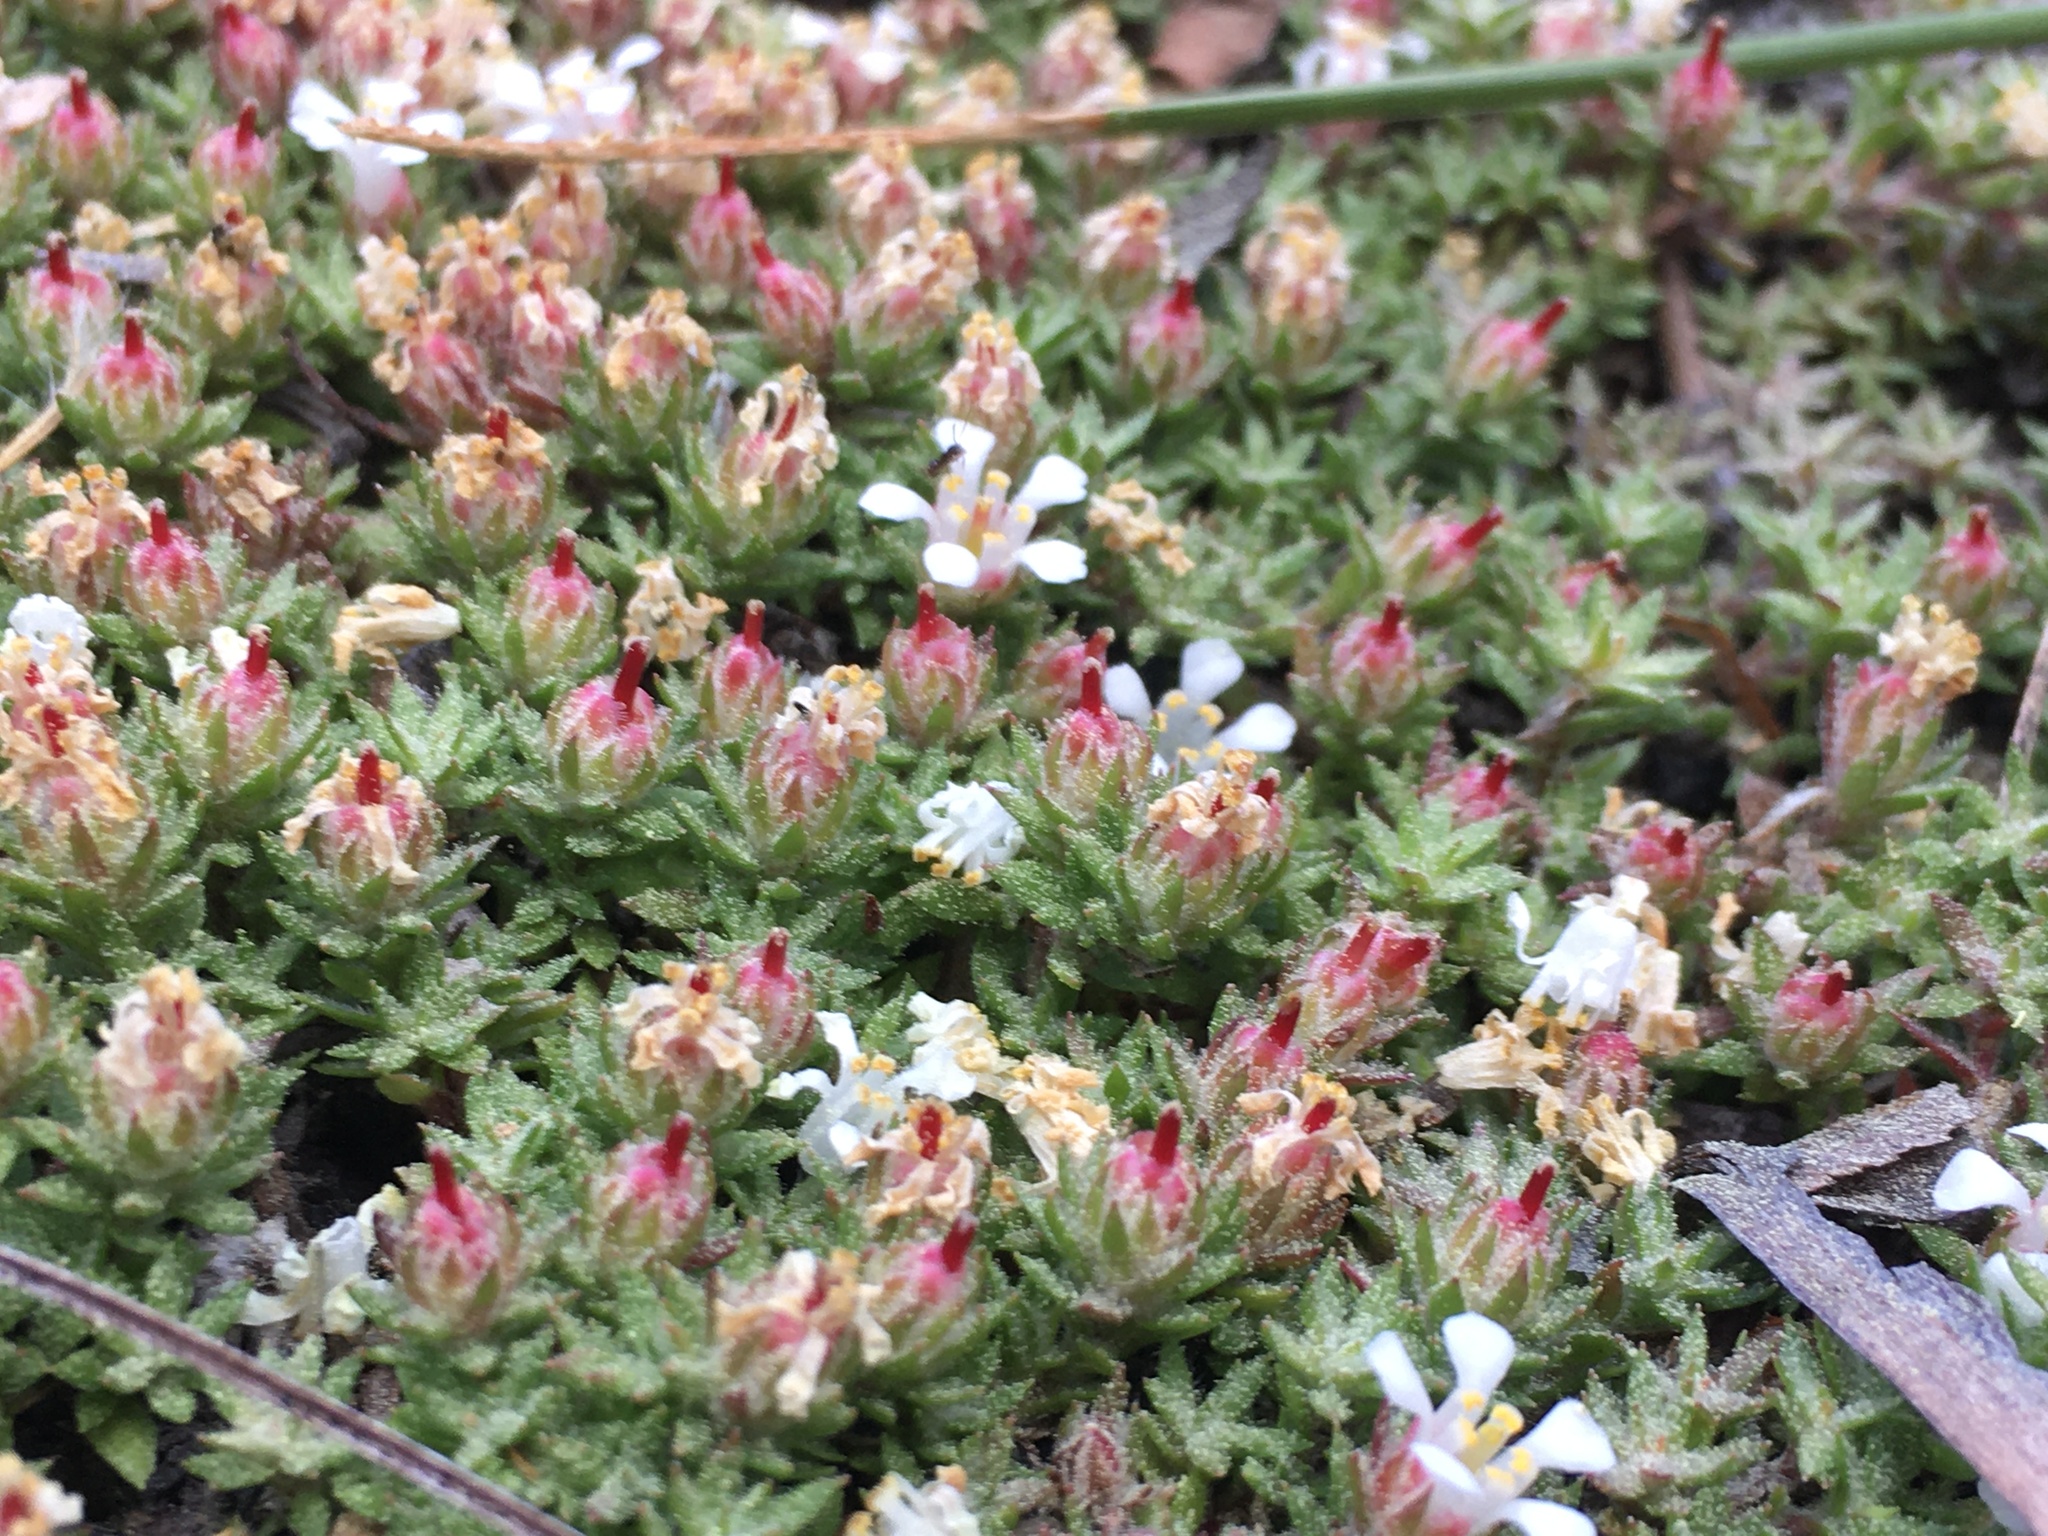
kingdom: Plantae
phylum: Tracheophyta
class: Magnoliopsida
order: Ericales
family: Diapensiaceae
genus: Pyxidanthera
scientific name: Pyxidanthera brevifolia
